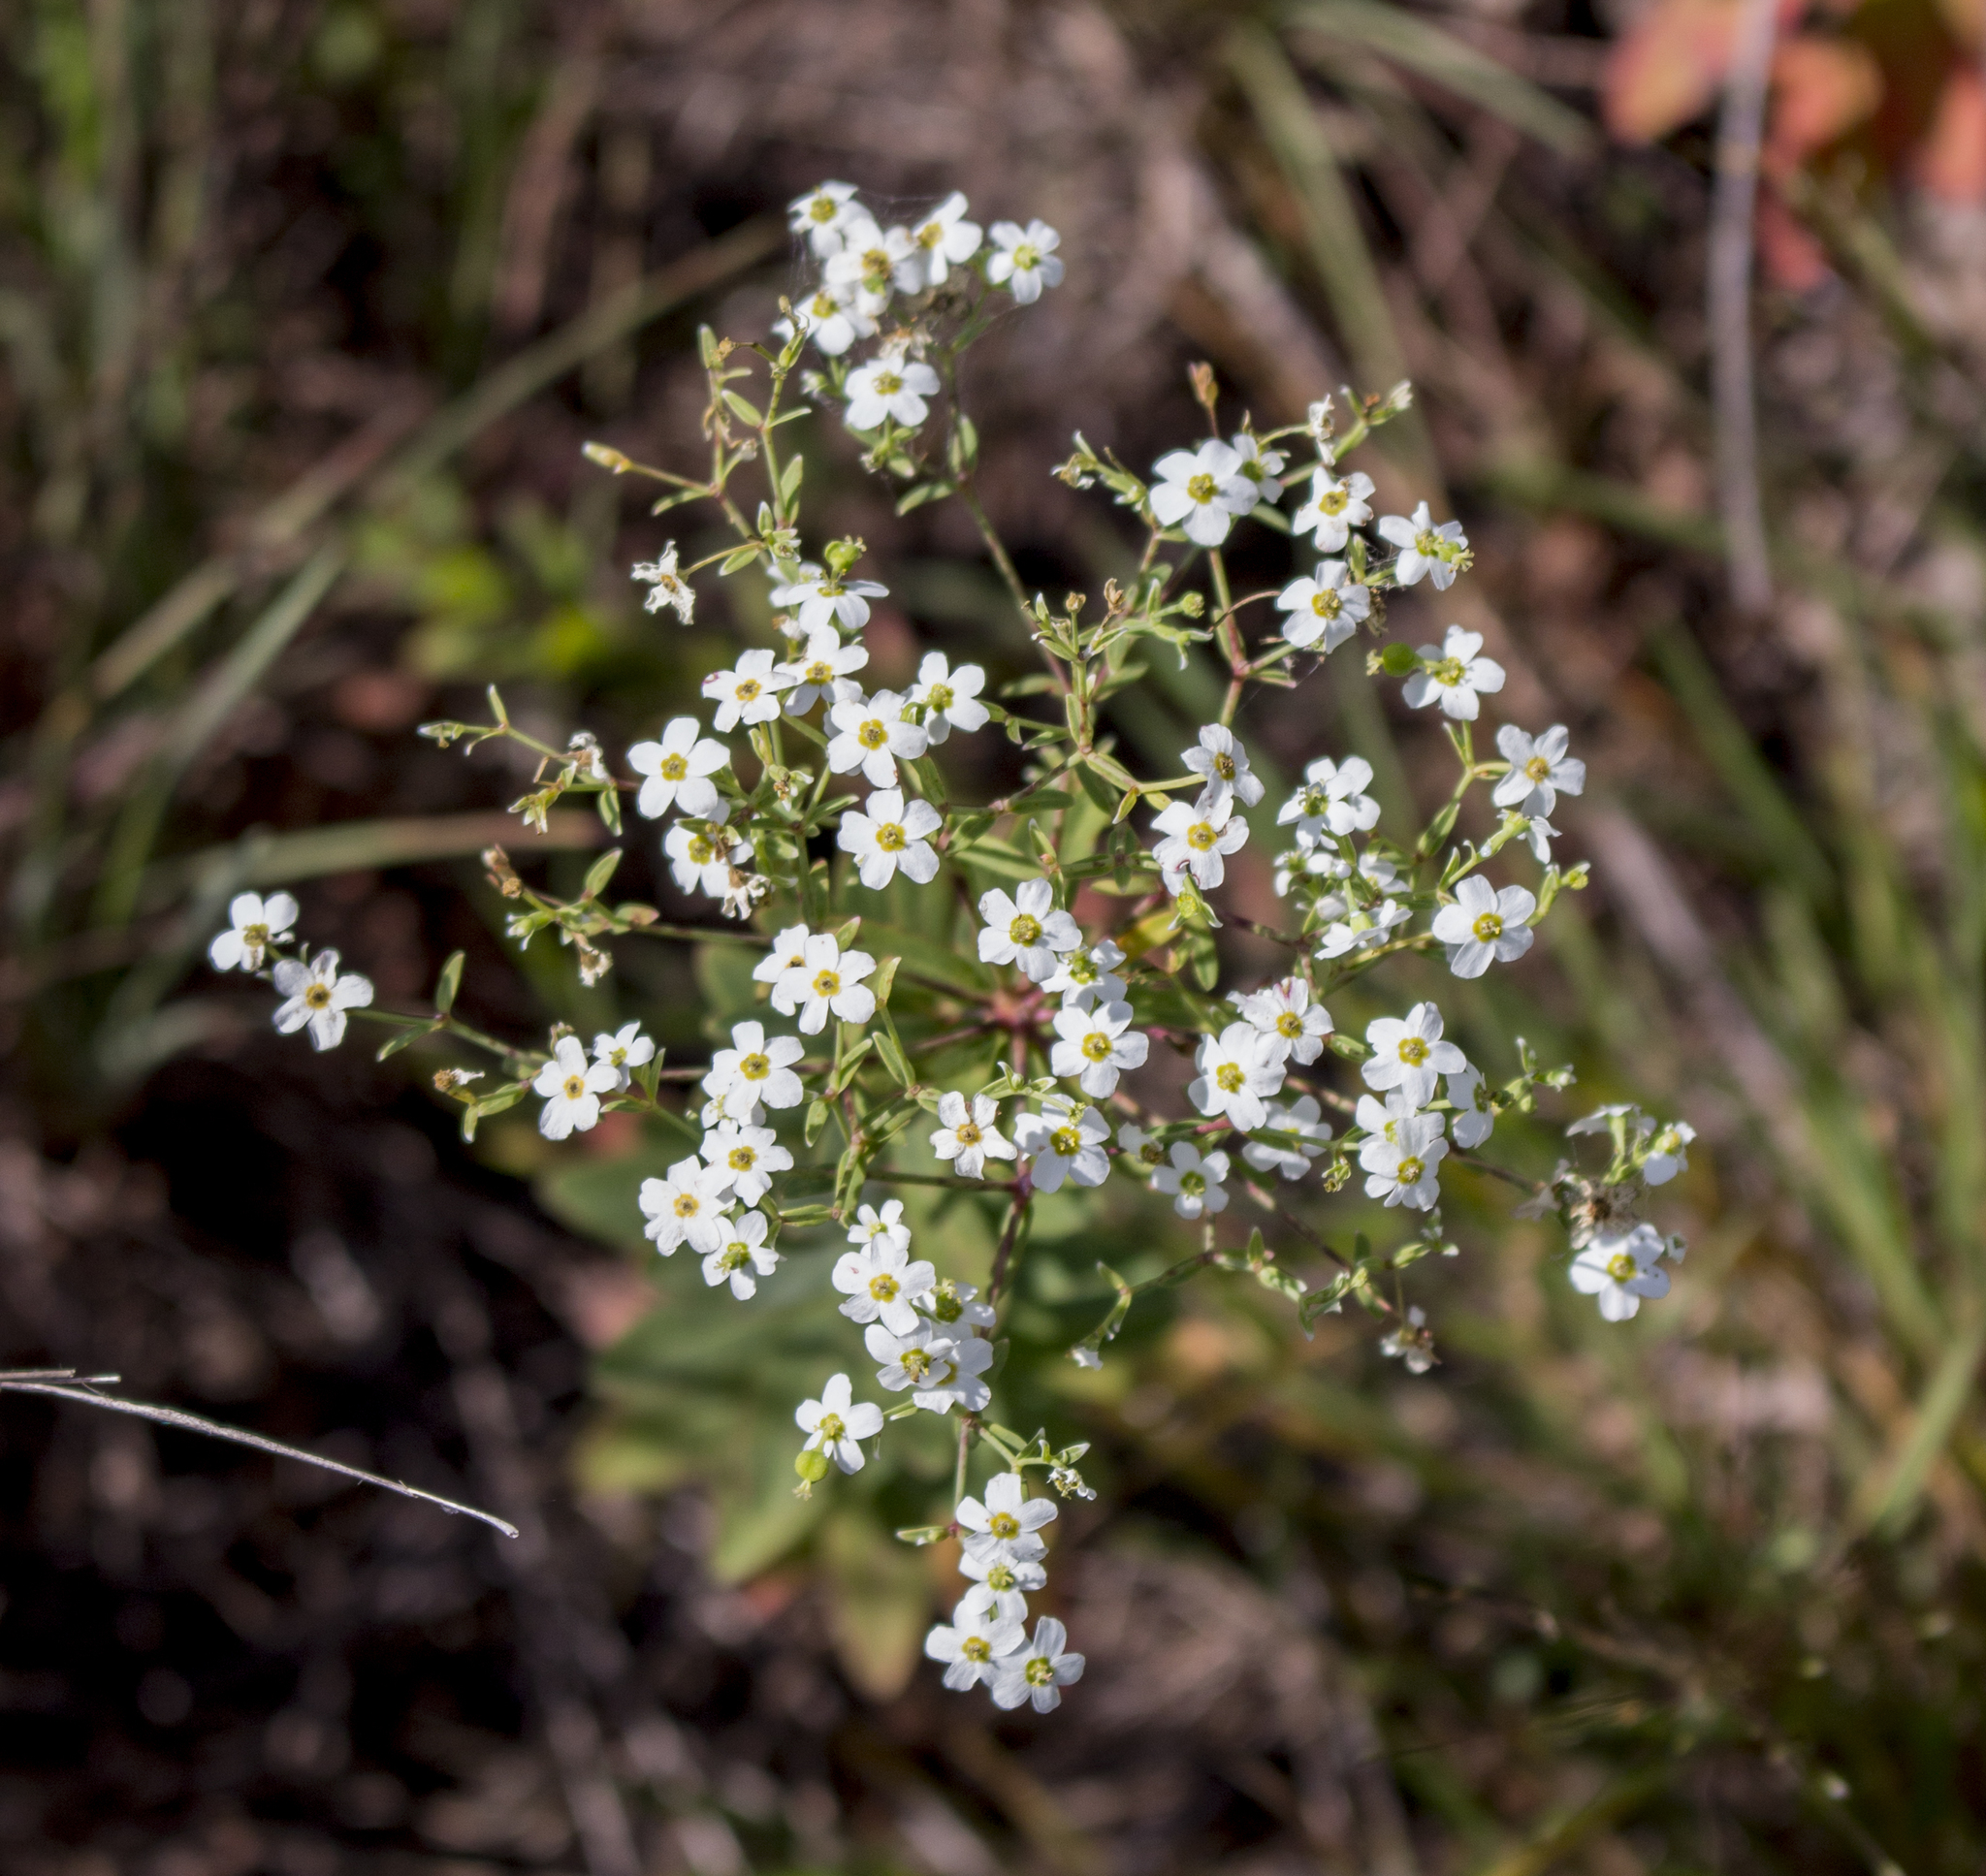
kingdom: Plantae
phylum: Tracheophyta
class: Magnoliopsida
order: Malpighiales
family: Euphorbiaceae
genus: Euphorbia
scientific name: Euphorbia corollata
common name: Flowering spurge
